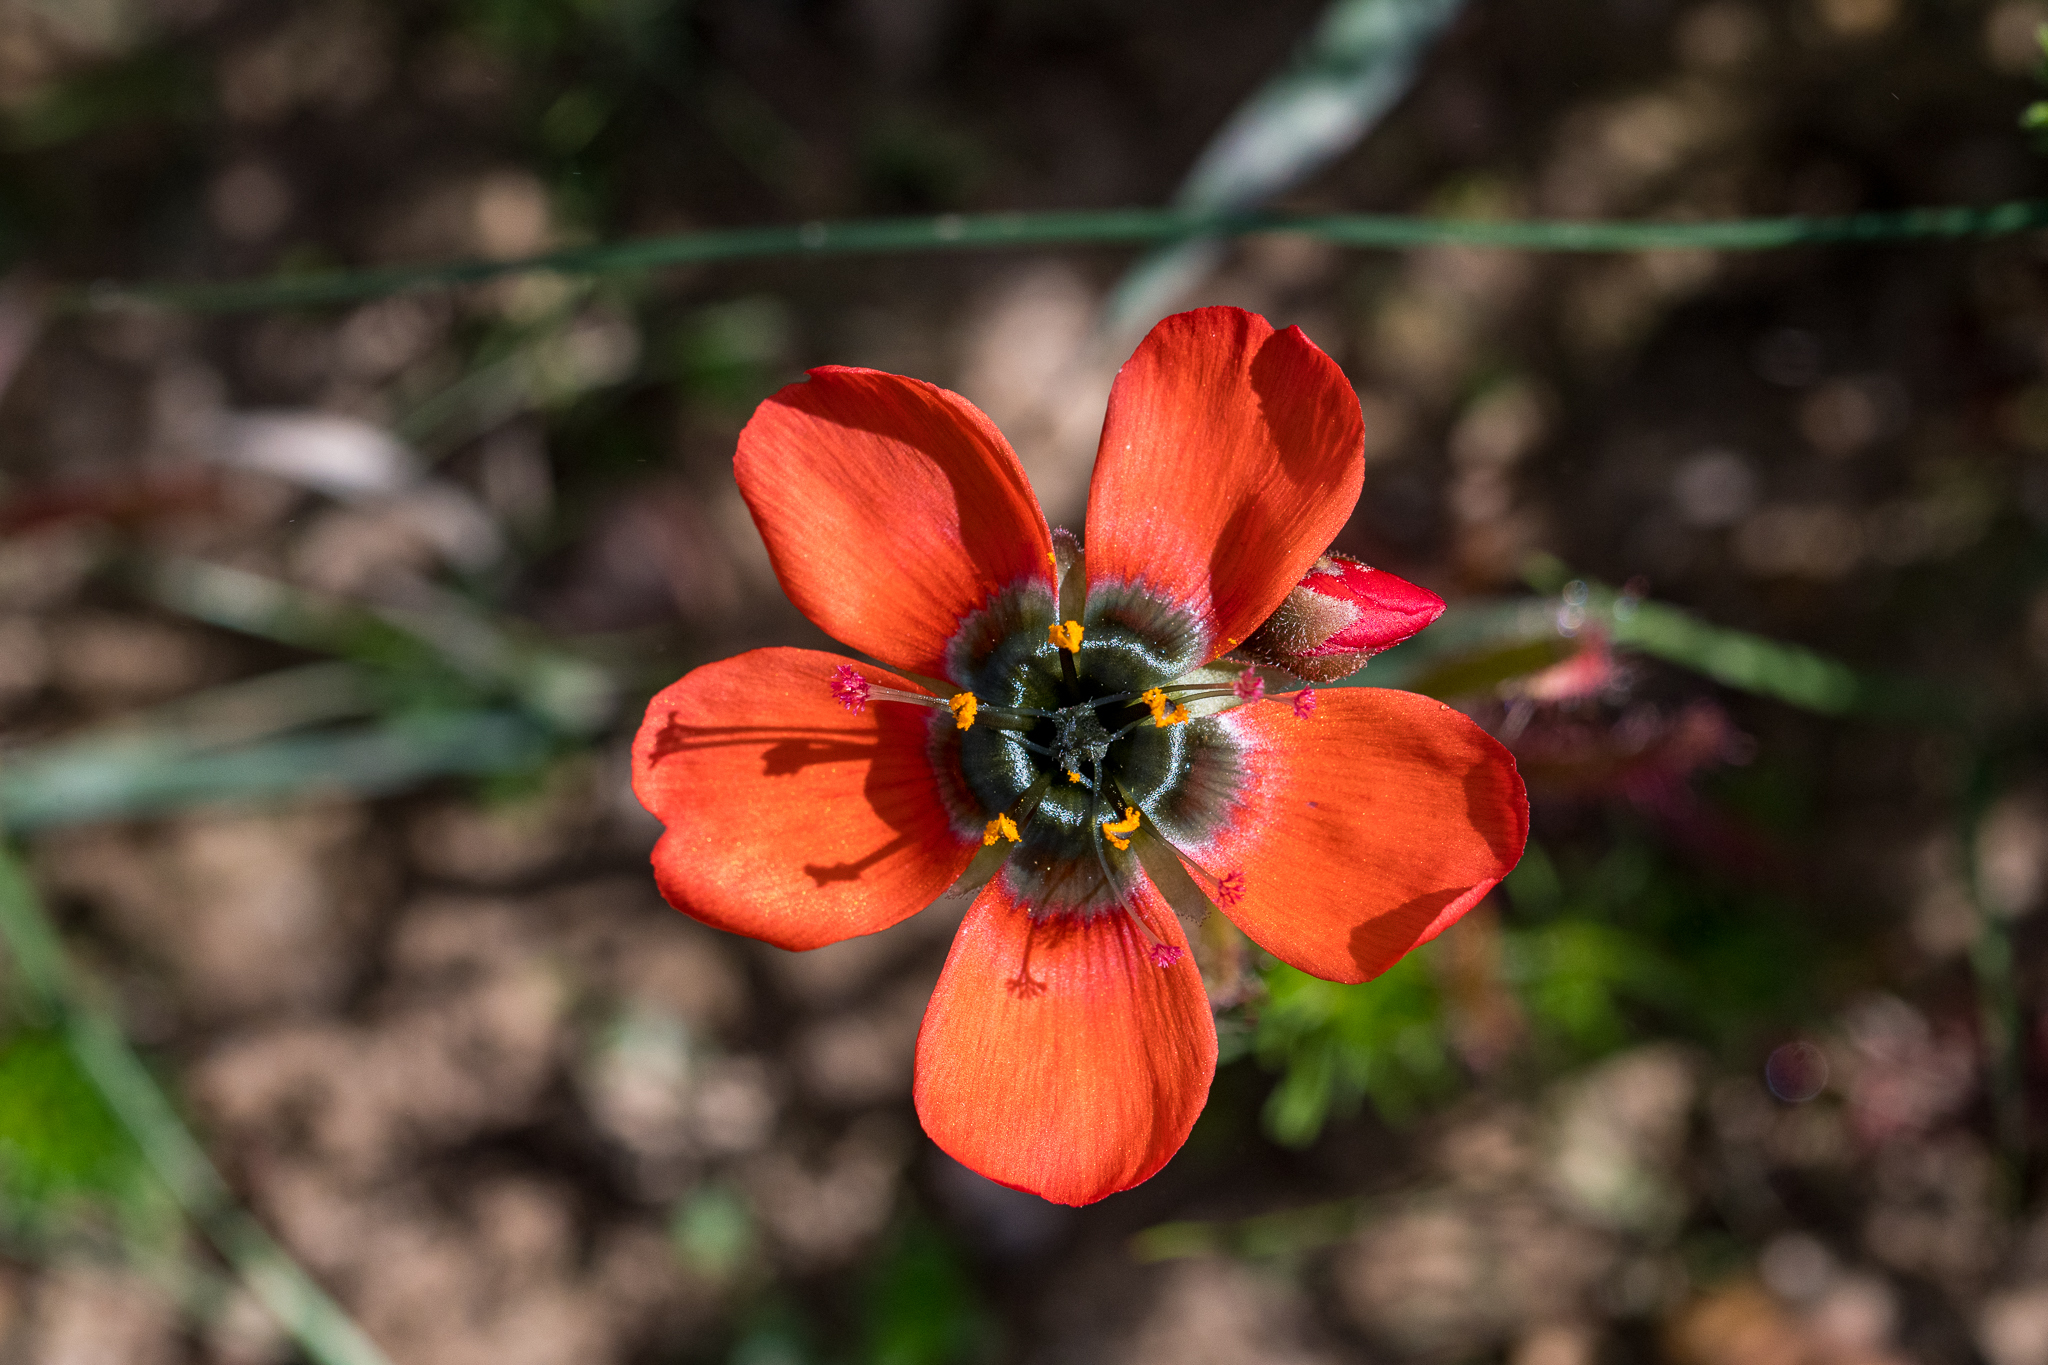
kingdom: Plantae
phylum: Tracheophyta
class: Magnoliopsida
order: Caryophyllales
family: Droseraceae
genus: Drosera
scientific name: Drosera cistiflora
